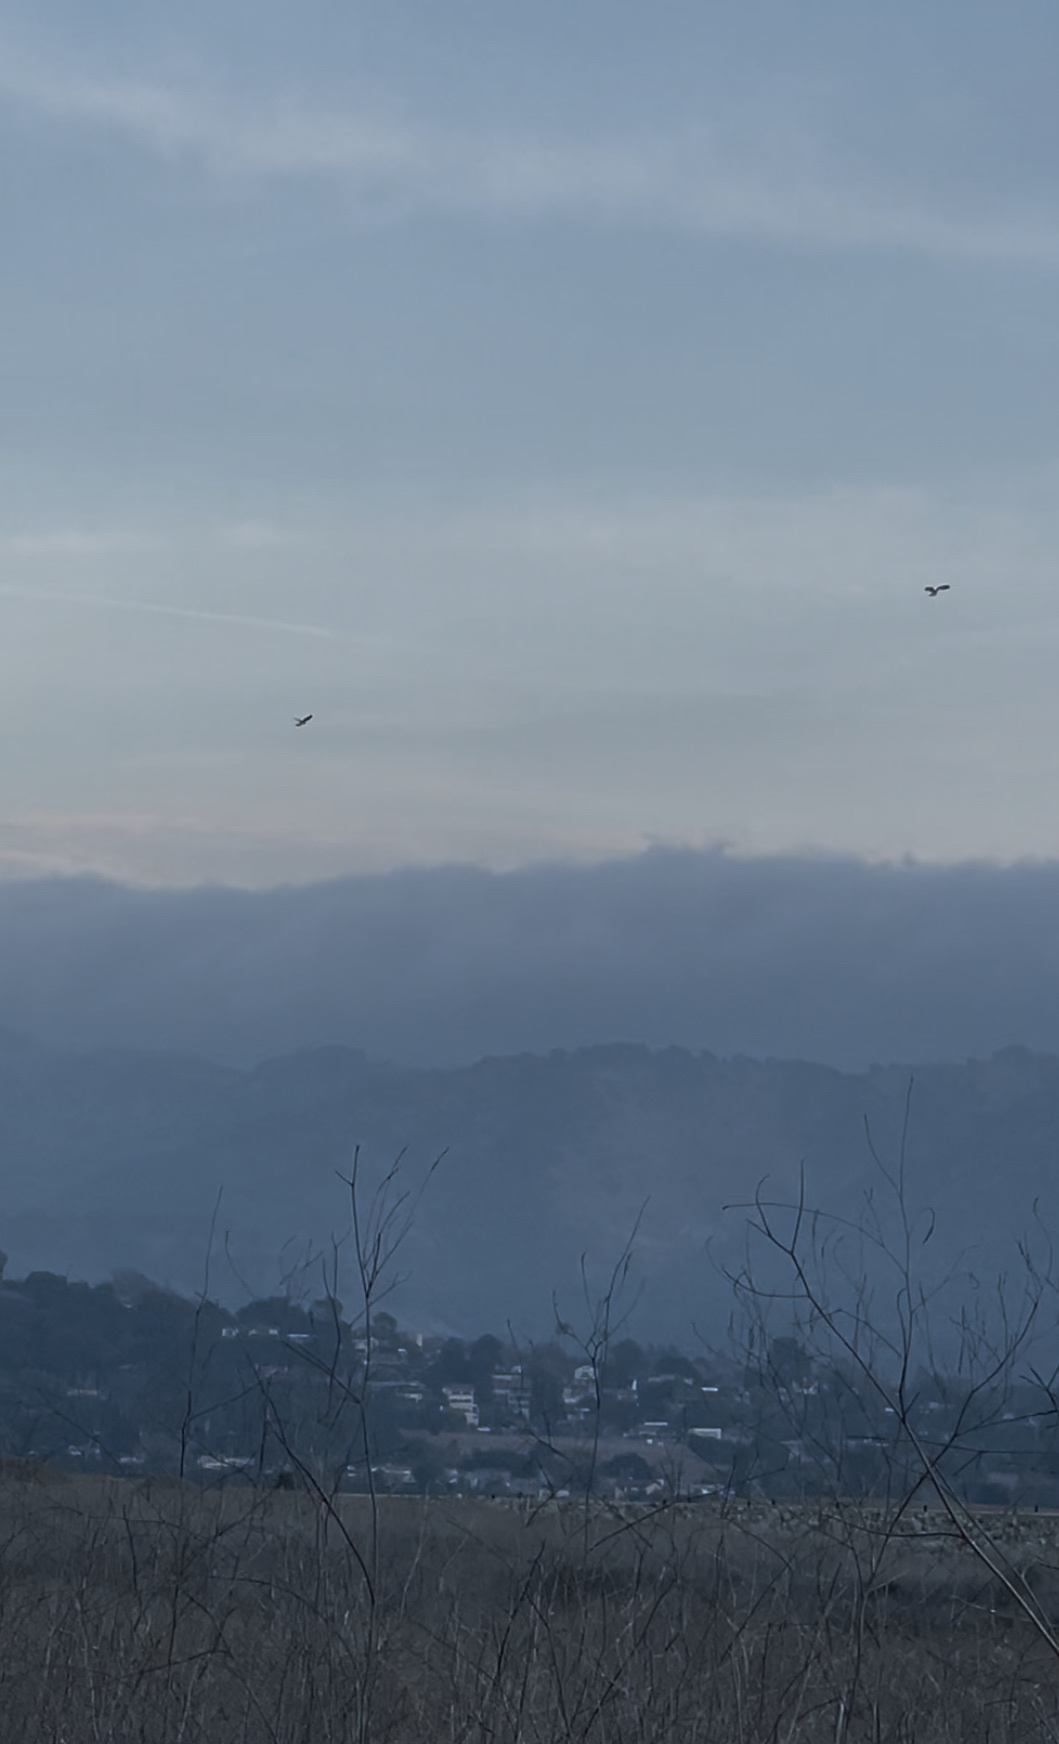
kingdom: Animalia
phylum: Chordata
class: Aves
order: Accipitriformes
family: Accipitridae
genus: Elanus
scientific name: Elanus leucurus
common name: White-tailed kite
